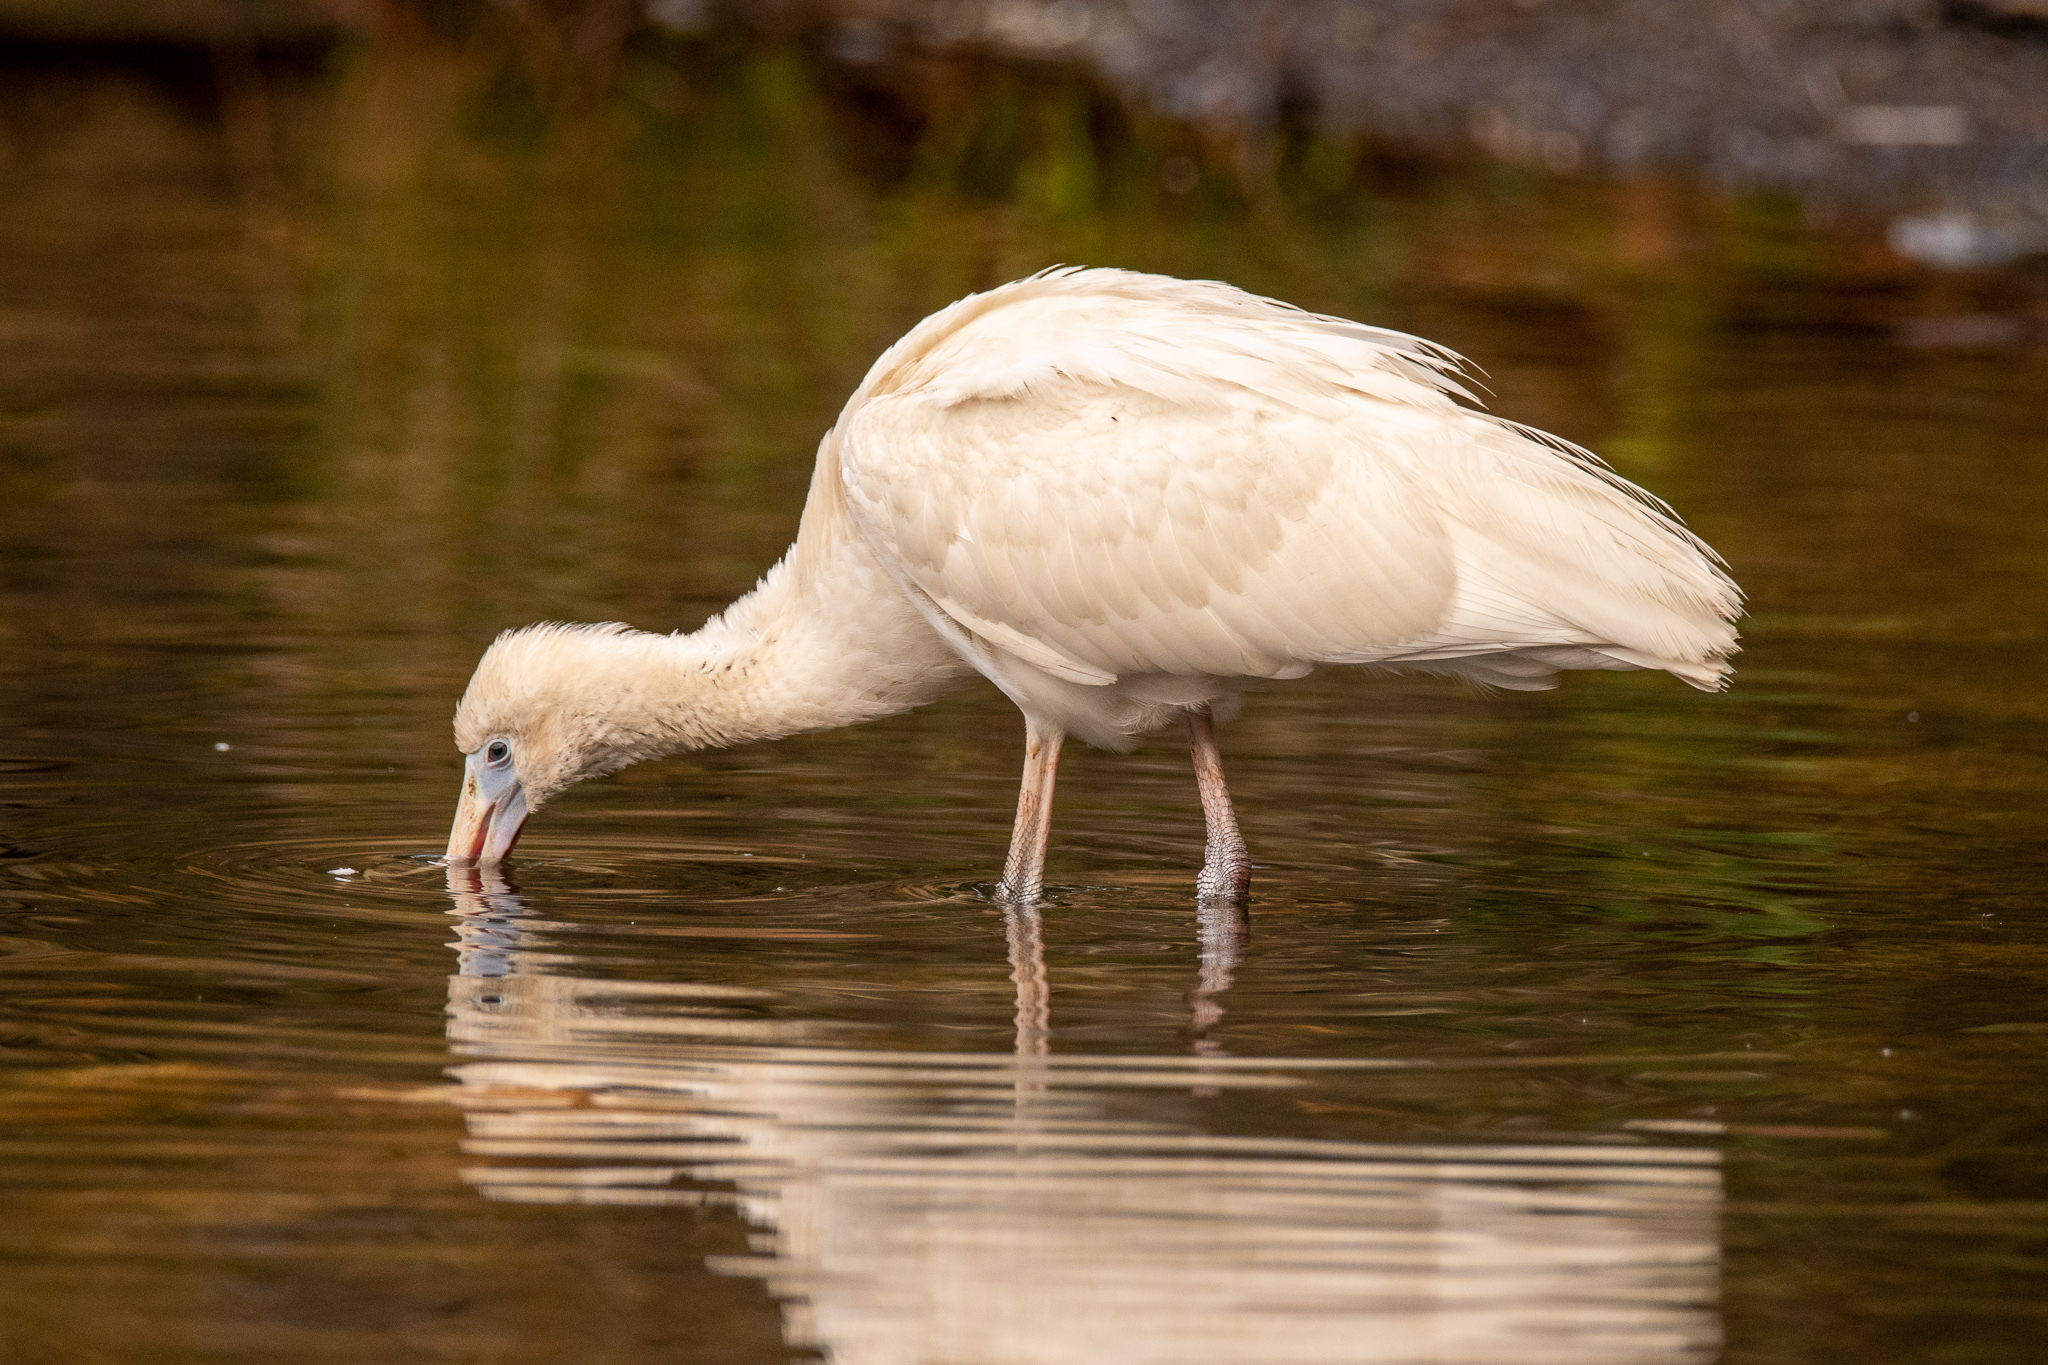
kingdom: Animalia
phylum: Chordata
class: Aves
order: Pelecaniformes
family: Threskiornithidae
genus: Platalea
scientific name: Platalea flavipes
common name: Yellow-billed spoonbill
